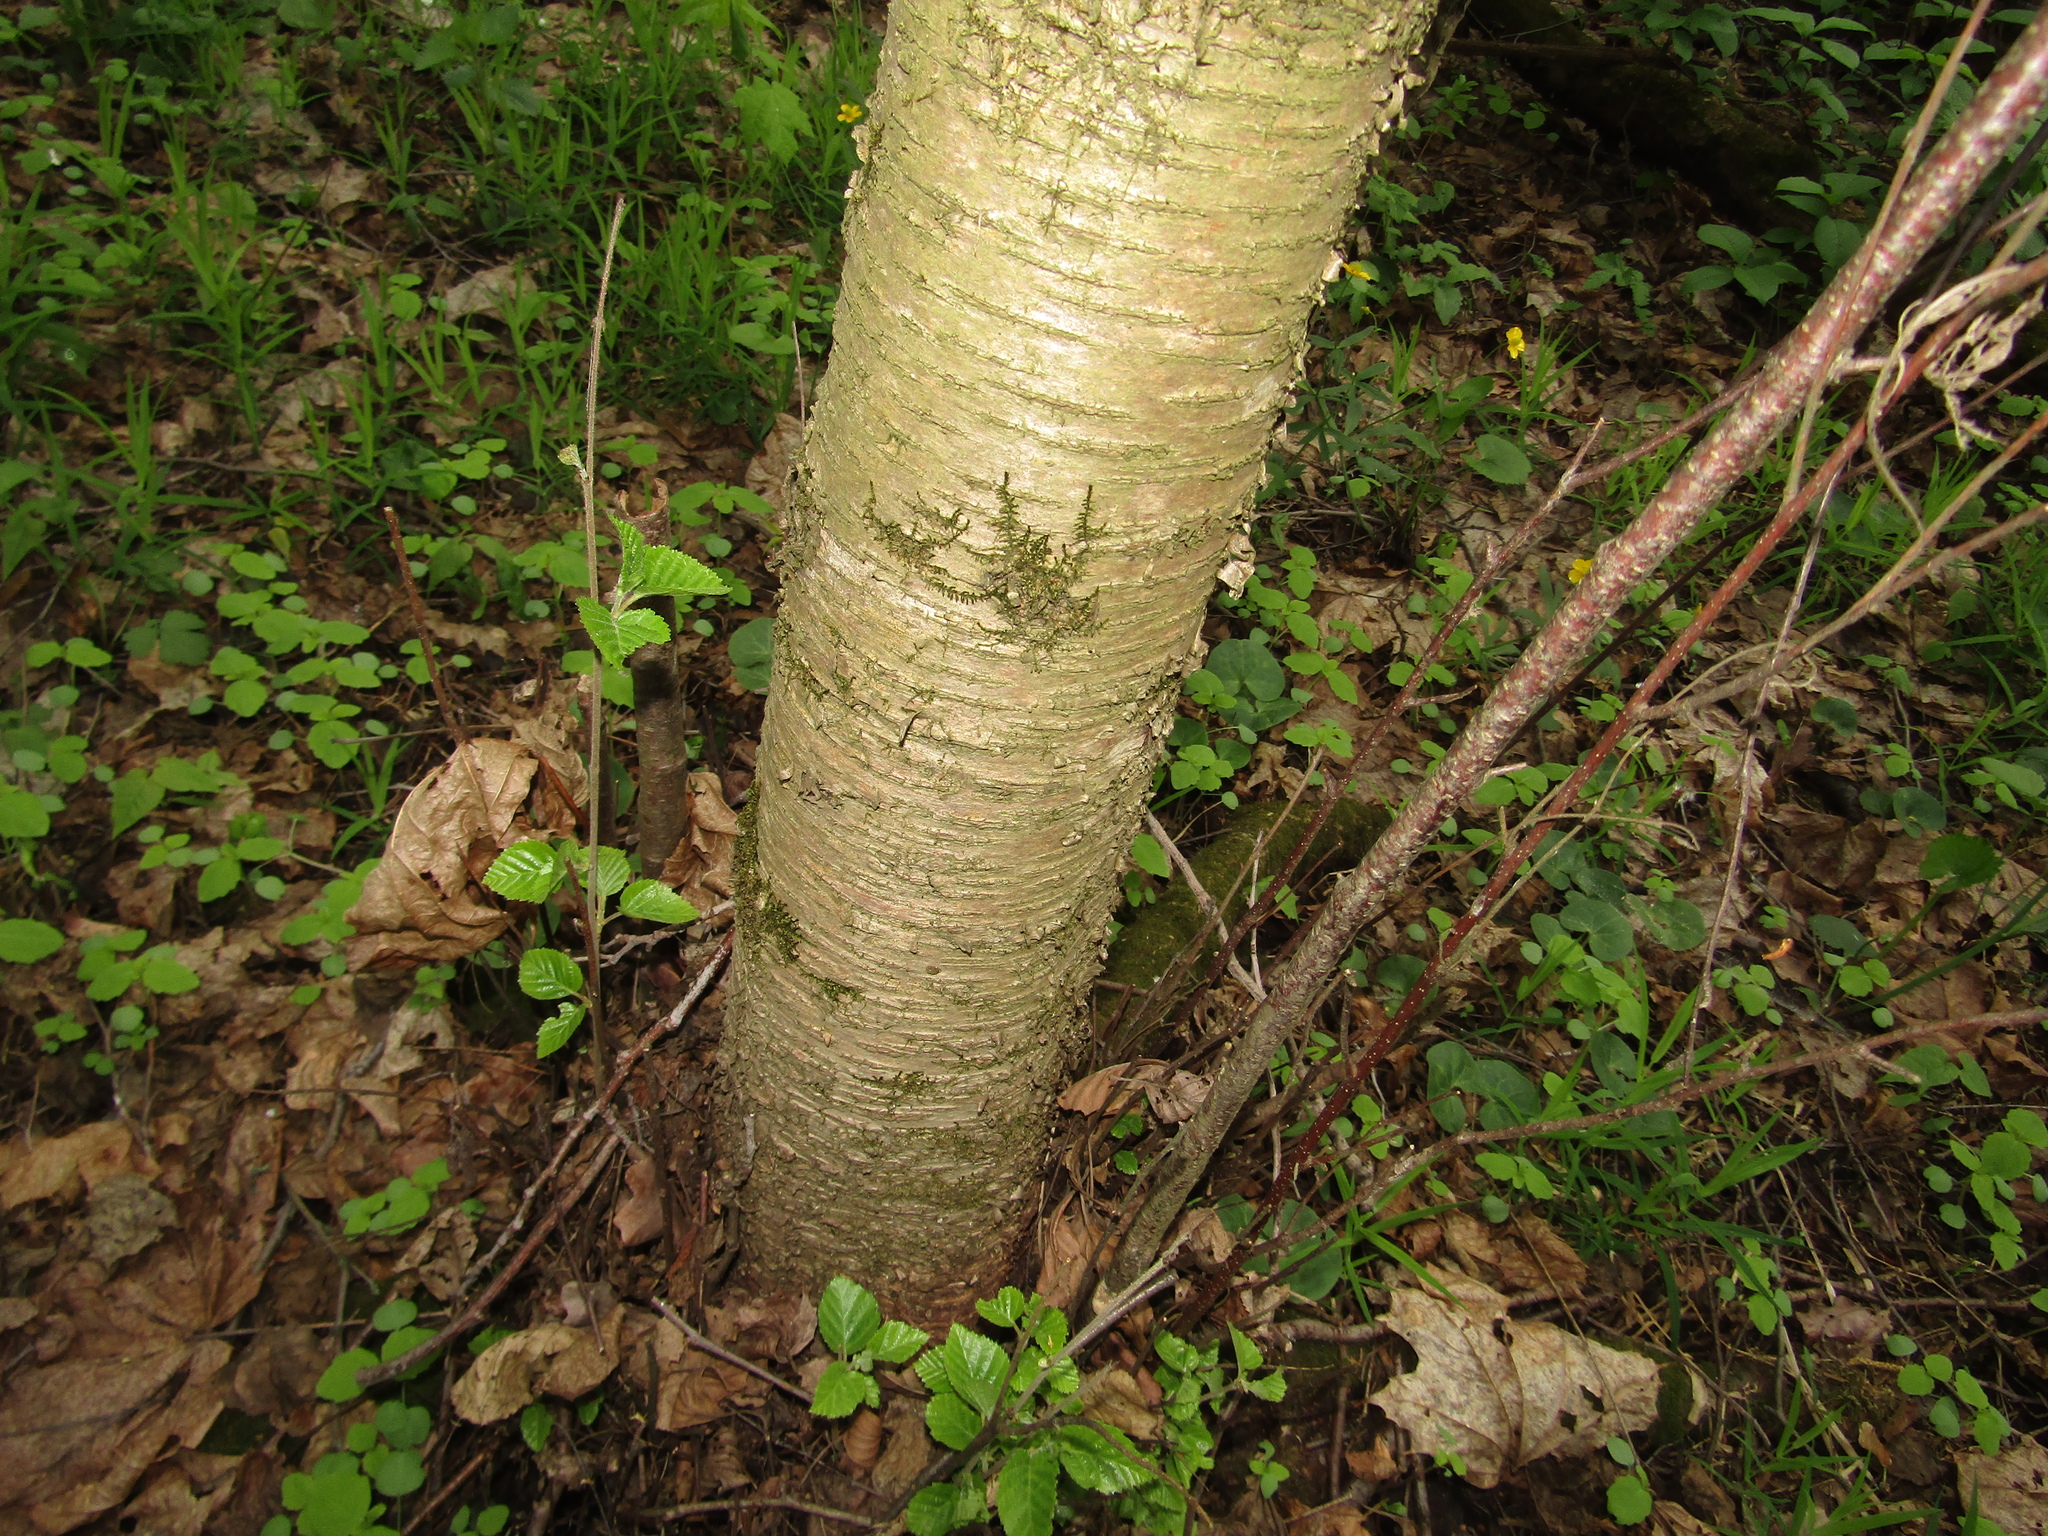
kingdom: Plantae
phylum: Tracheophyta
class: Magnoliopsida
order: Fagales
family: Betulaceae
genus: Betula
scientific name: Betula pubescens
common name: Downy birch
